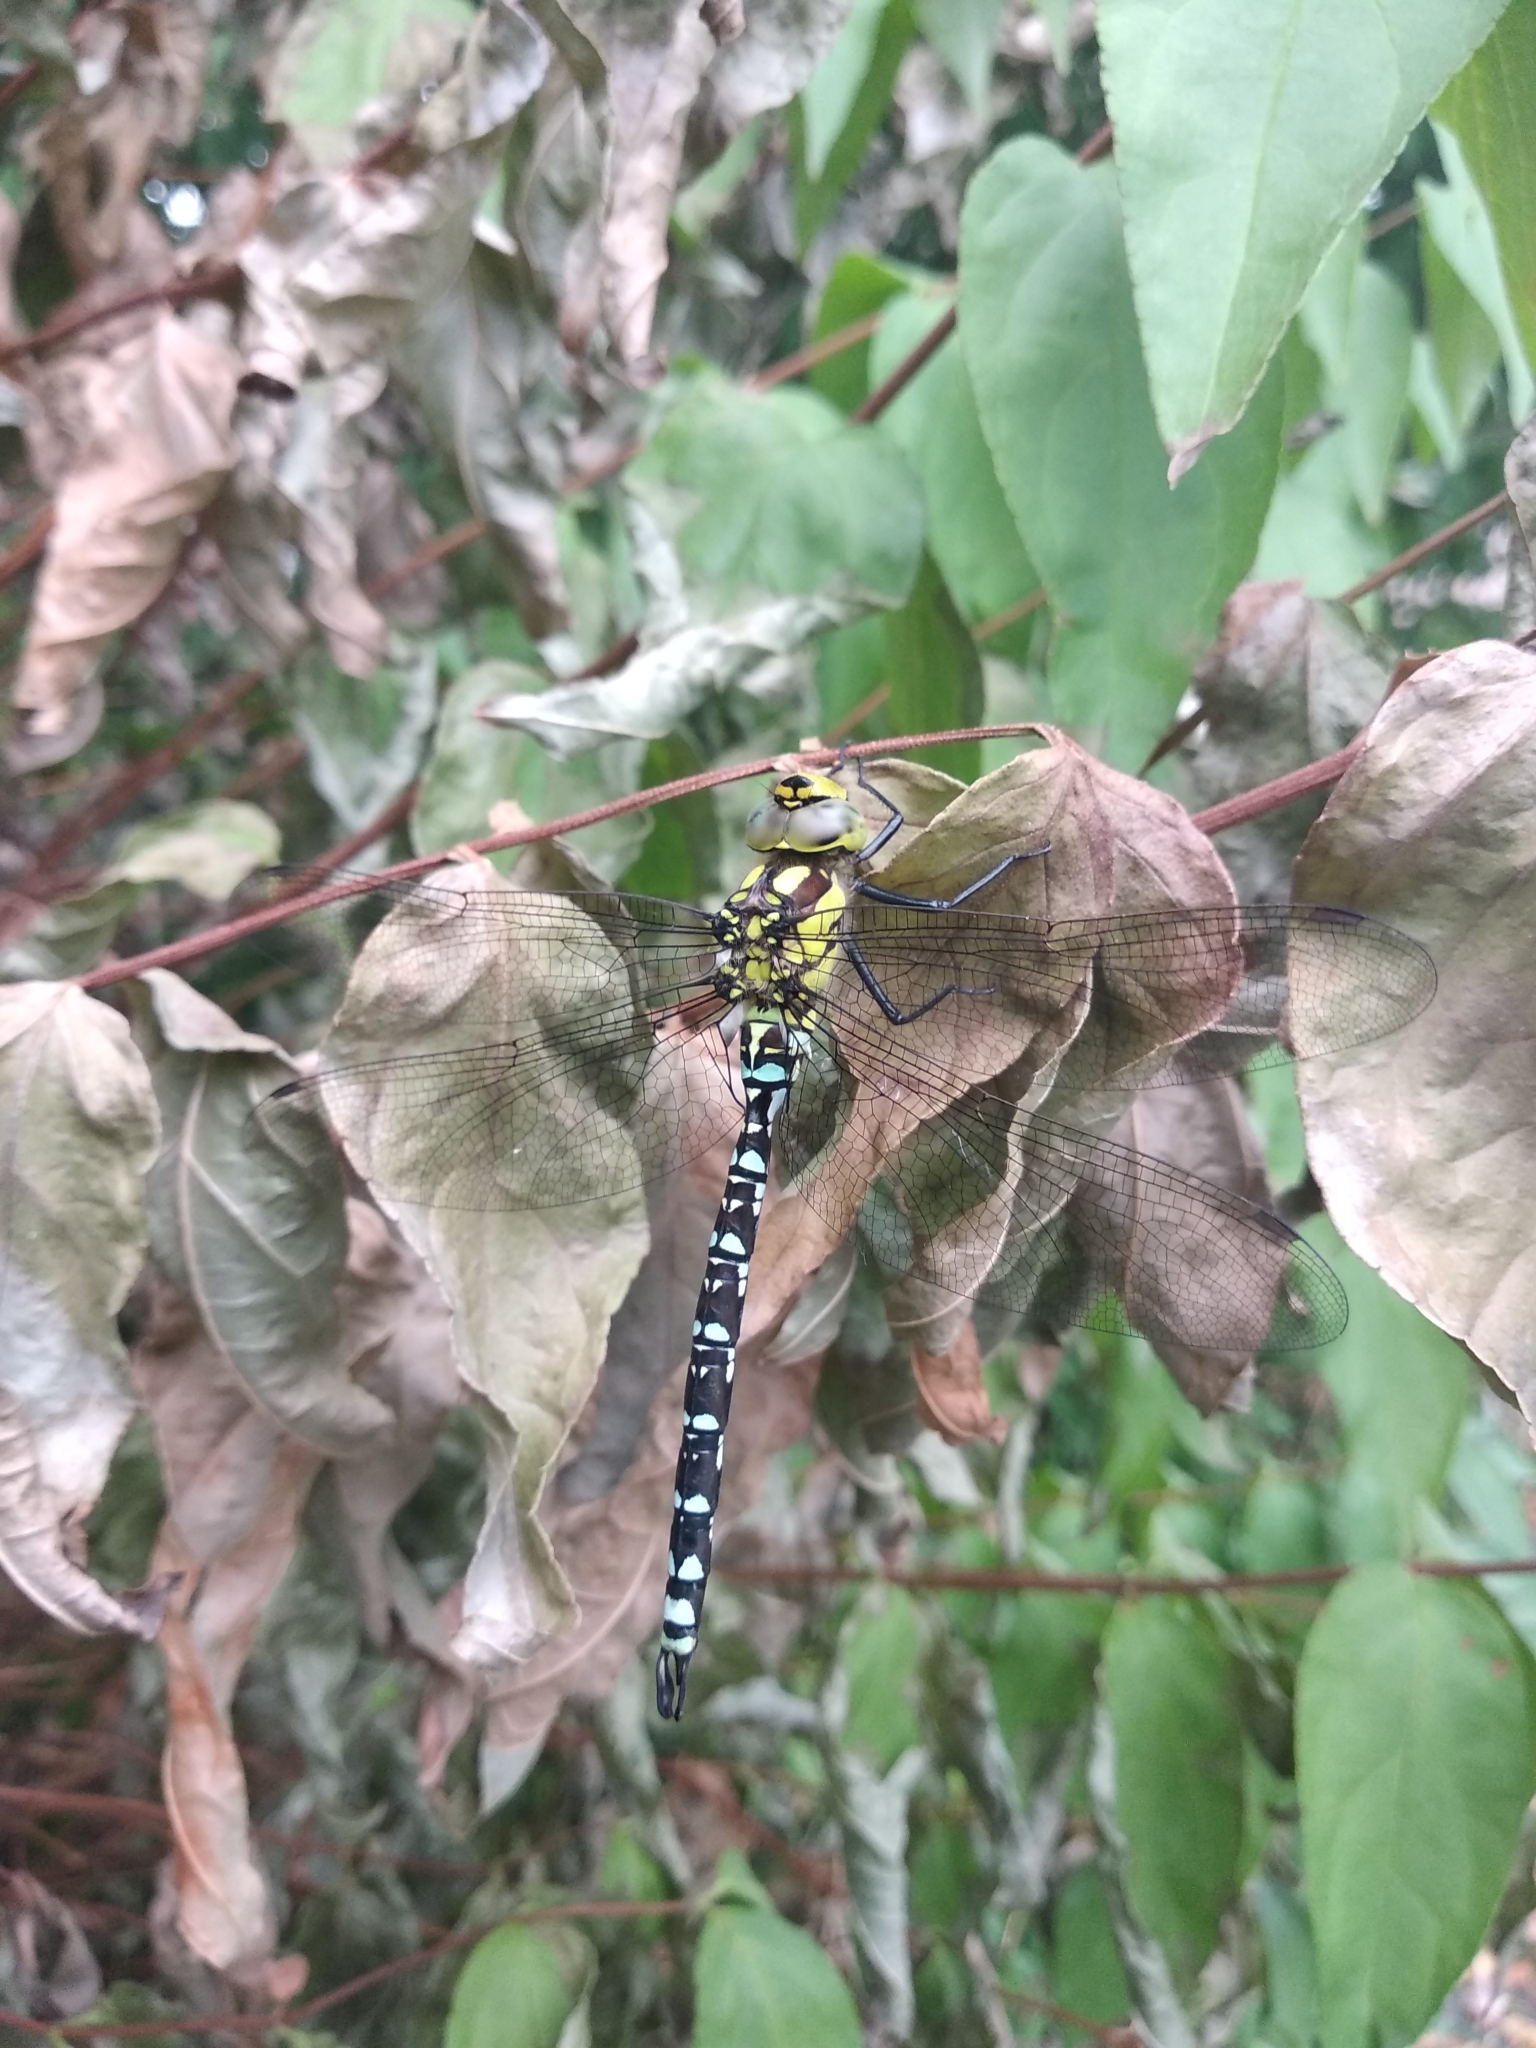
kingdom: Animalia
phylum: Arthropoda
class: Insecta
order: Odonata
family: Aeshnidae
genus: Aeshna
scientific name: Aeshna cyanea
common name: Southern hawker
